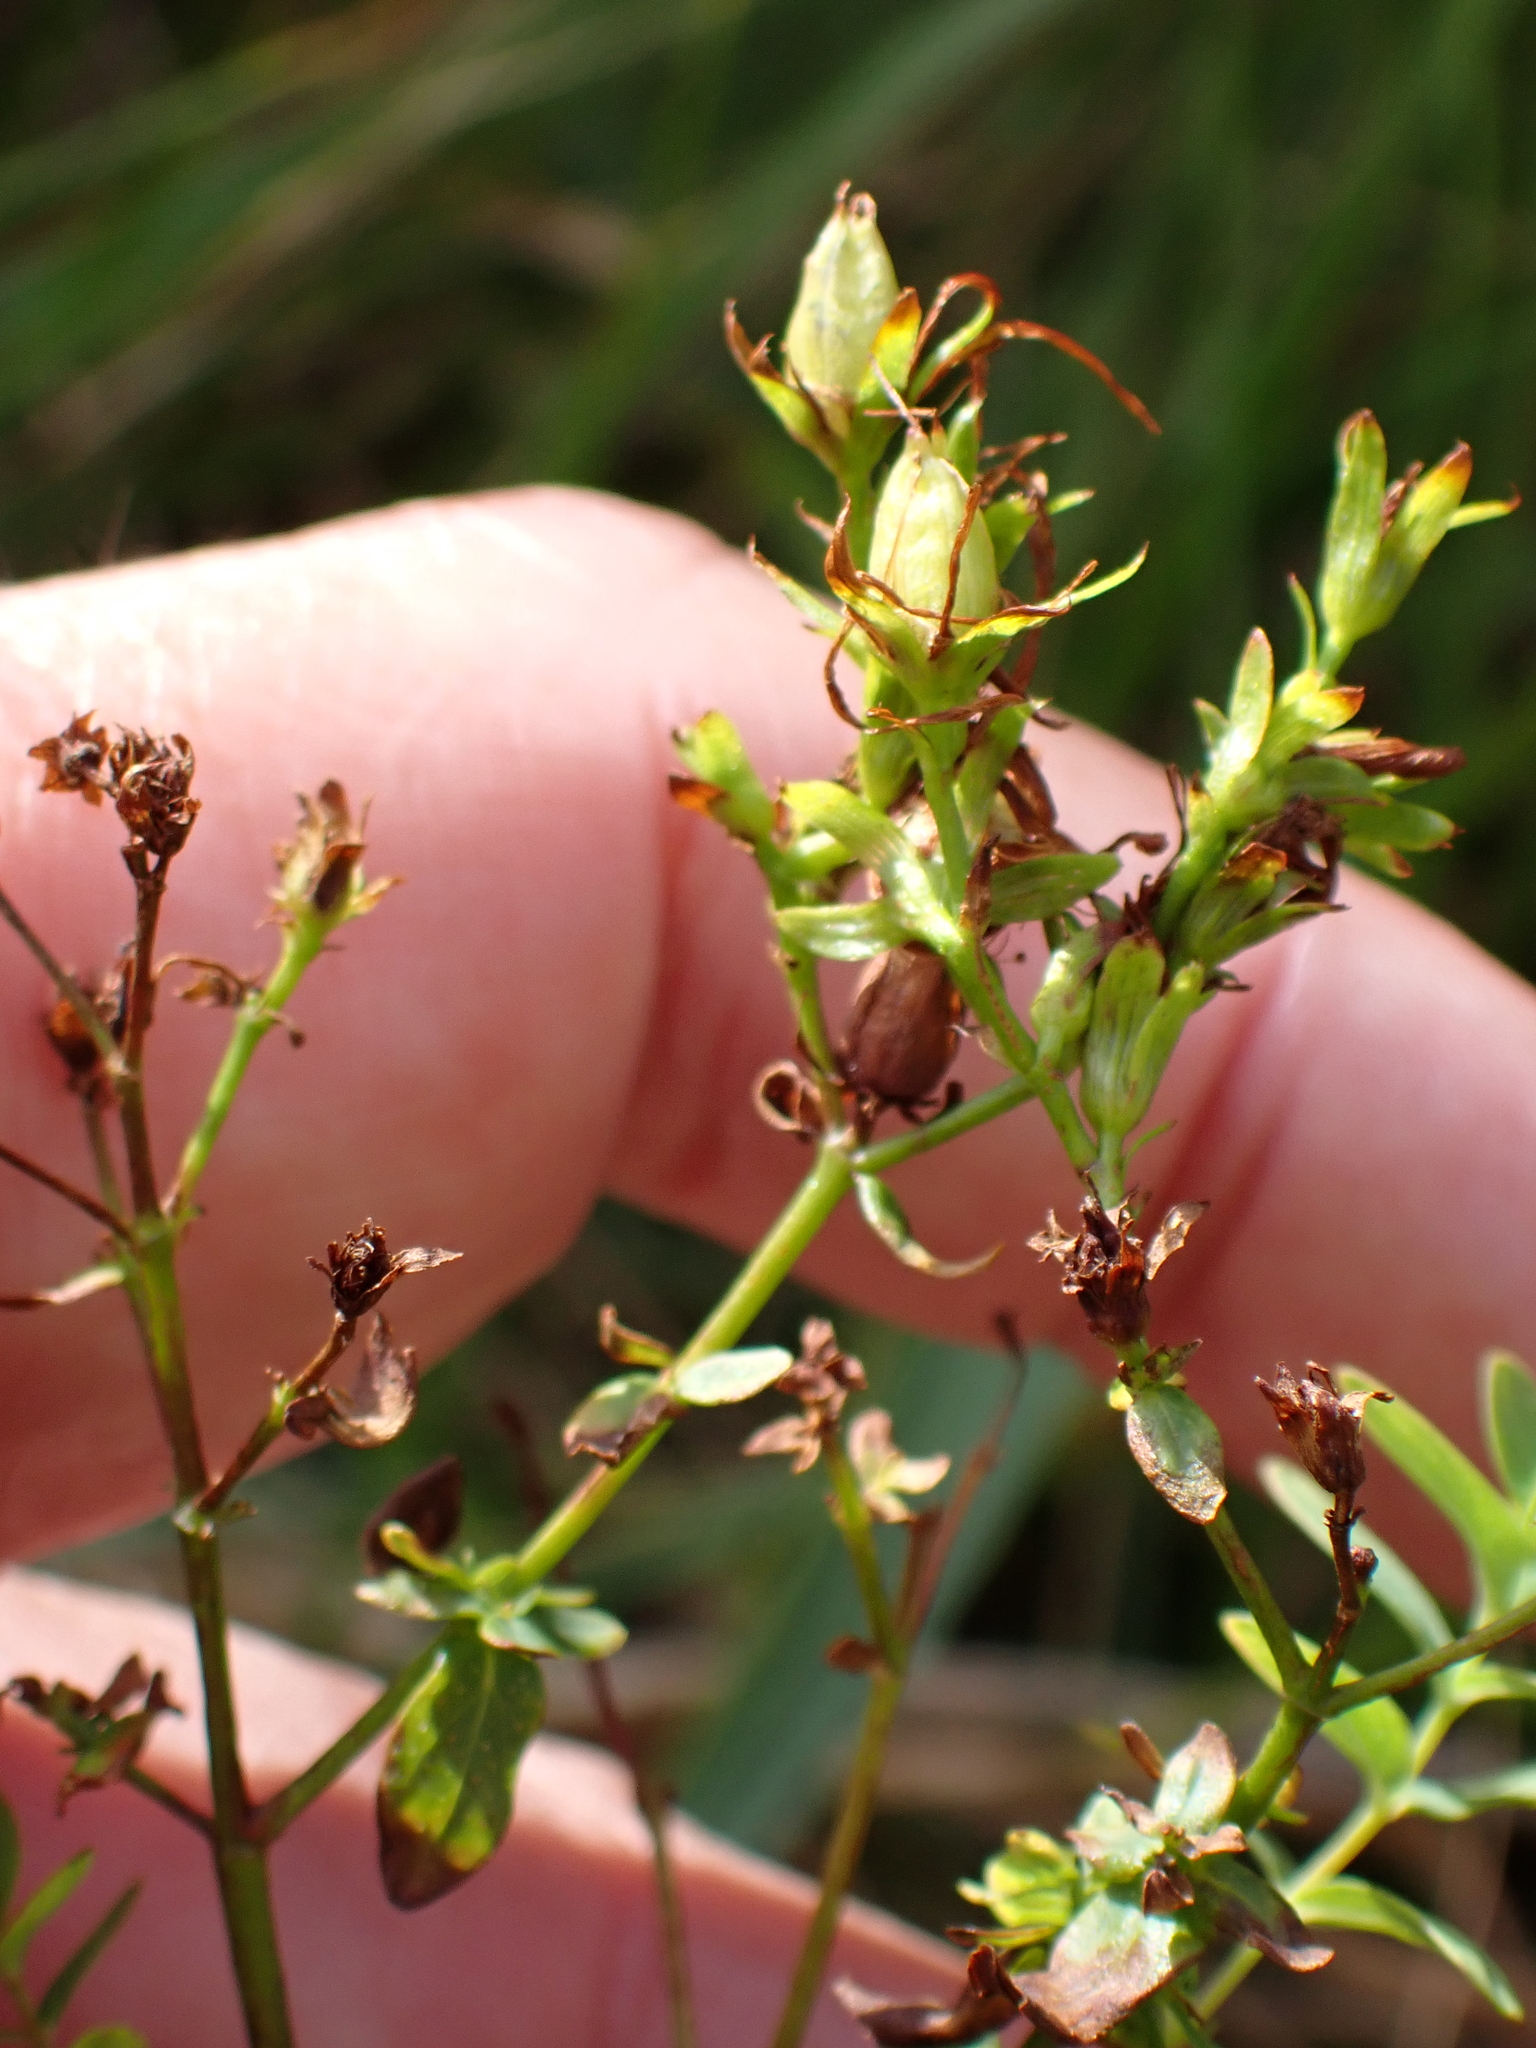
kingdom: Plantae
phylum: Tracheophyta
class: Magnoliopsida
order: Malpighiales
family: Hypericaceae
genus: Hypericum
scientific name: Hypericum perforatum
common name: Common st. johnswort
